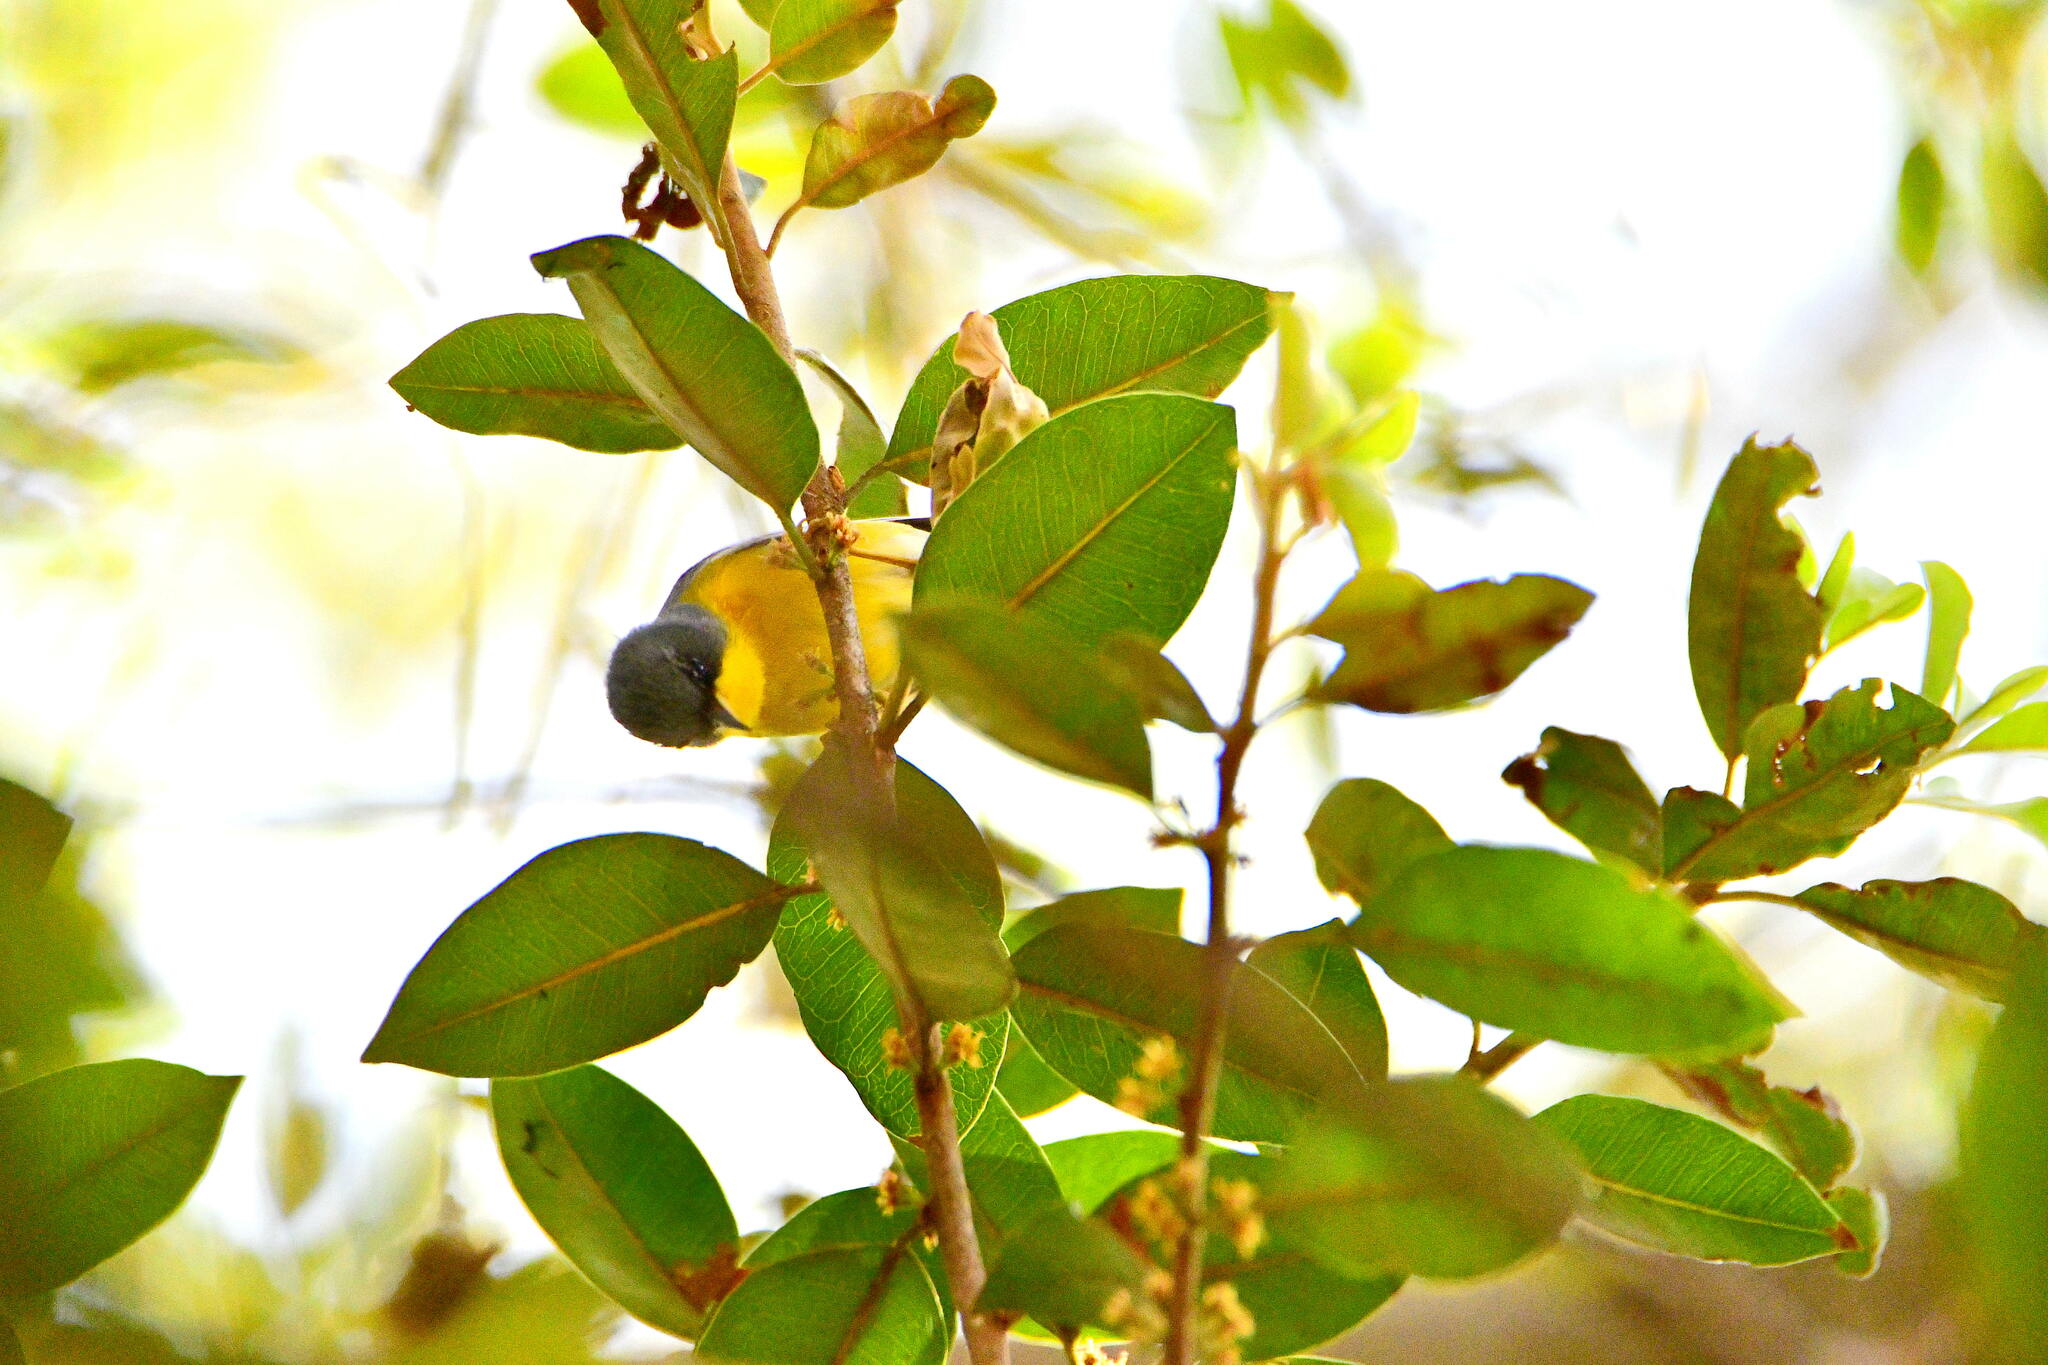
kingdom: Animalia
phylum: Chordata
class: Aves
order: Passeriformes
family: Parulidae
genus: Setophaga
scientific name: Setophaga pitiayumi
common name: Tropical parula
